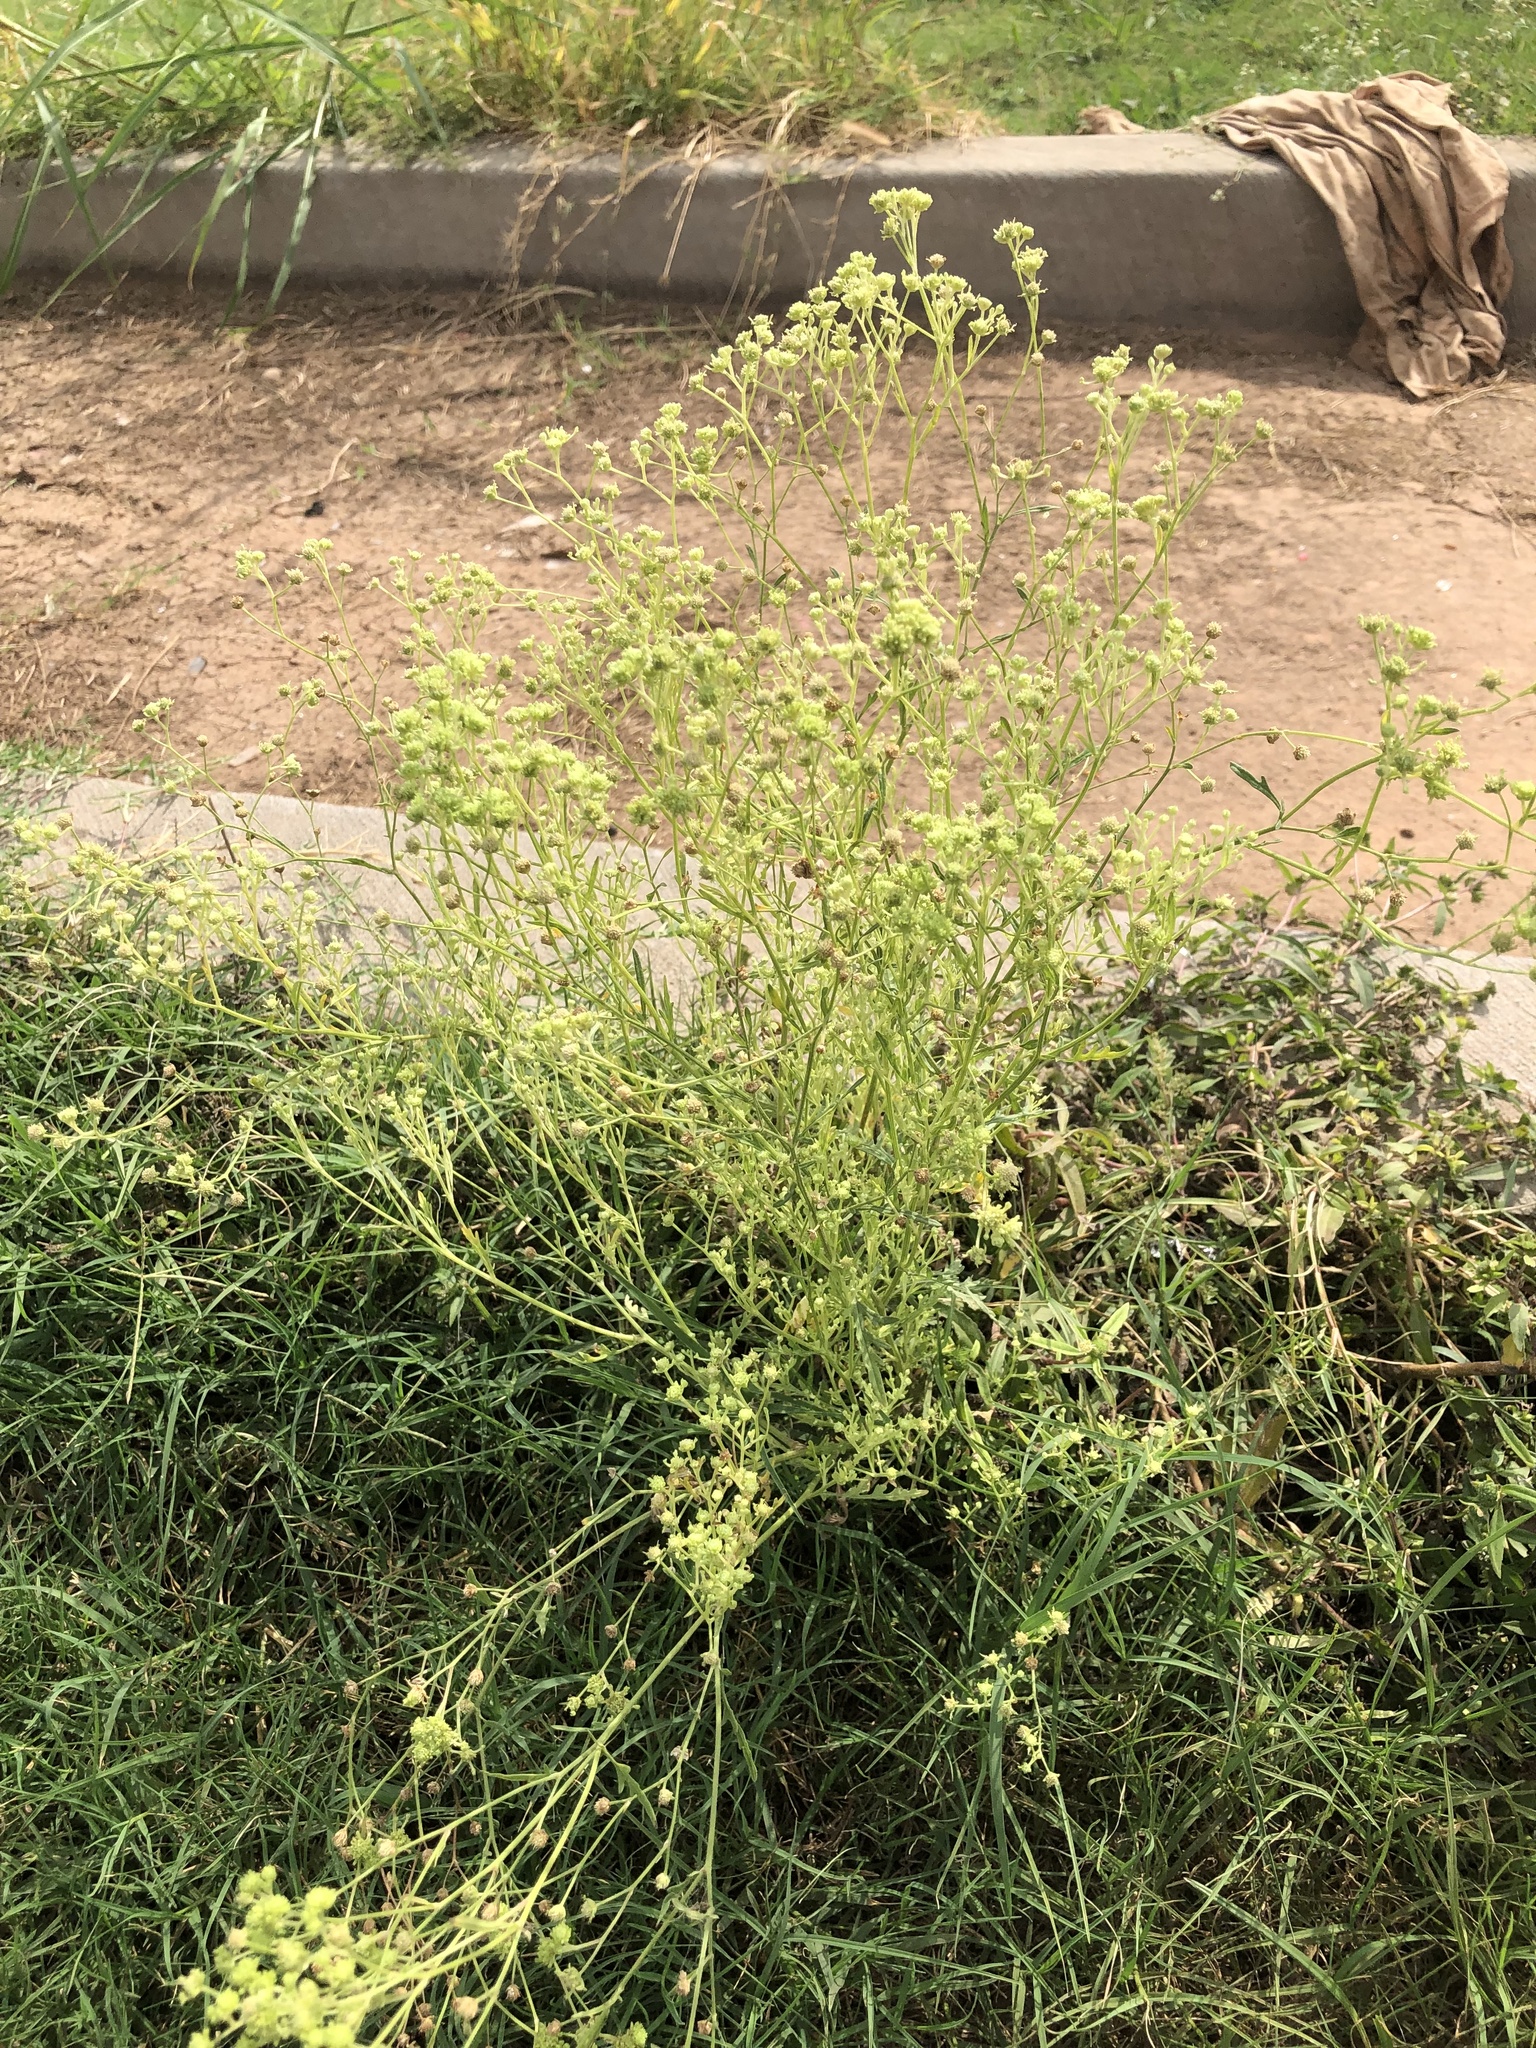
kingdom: Plantae
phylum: Tracheophyta
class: Magnoliopsida
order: Asterales
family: Asteraceae
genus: Parthenium
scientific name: Parthenium hysterophorus
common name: Santa maria feverfew
